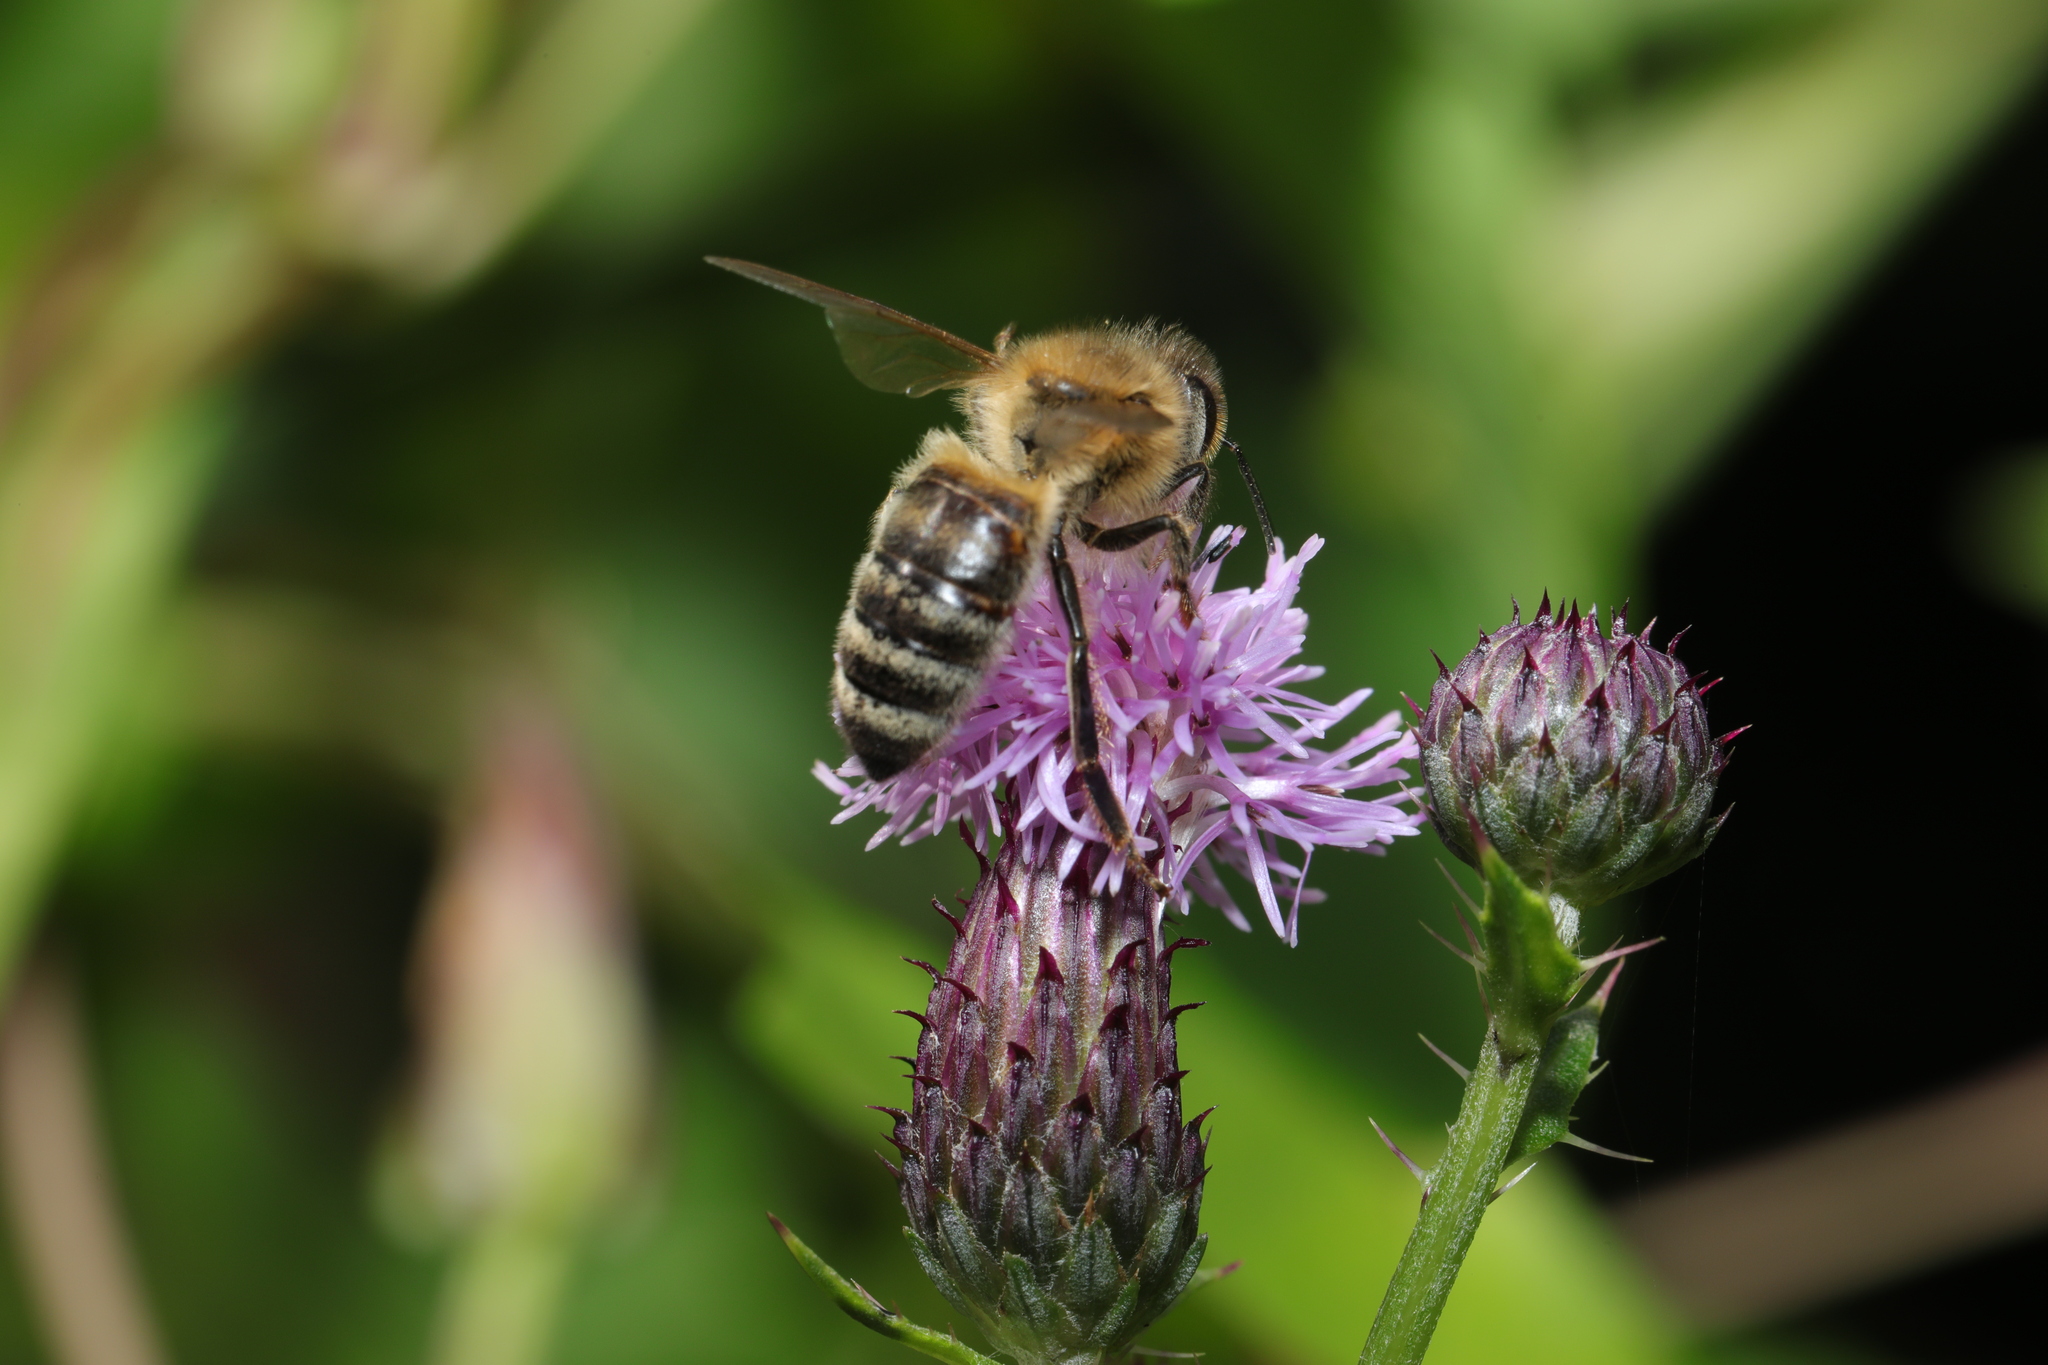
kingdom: Animalia
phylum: Arthropoda
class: Insecta
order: Hymenoptera
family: Apidae
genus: Apis
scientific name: Apis mellifera
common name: Honey bee
